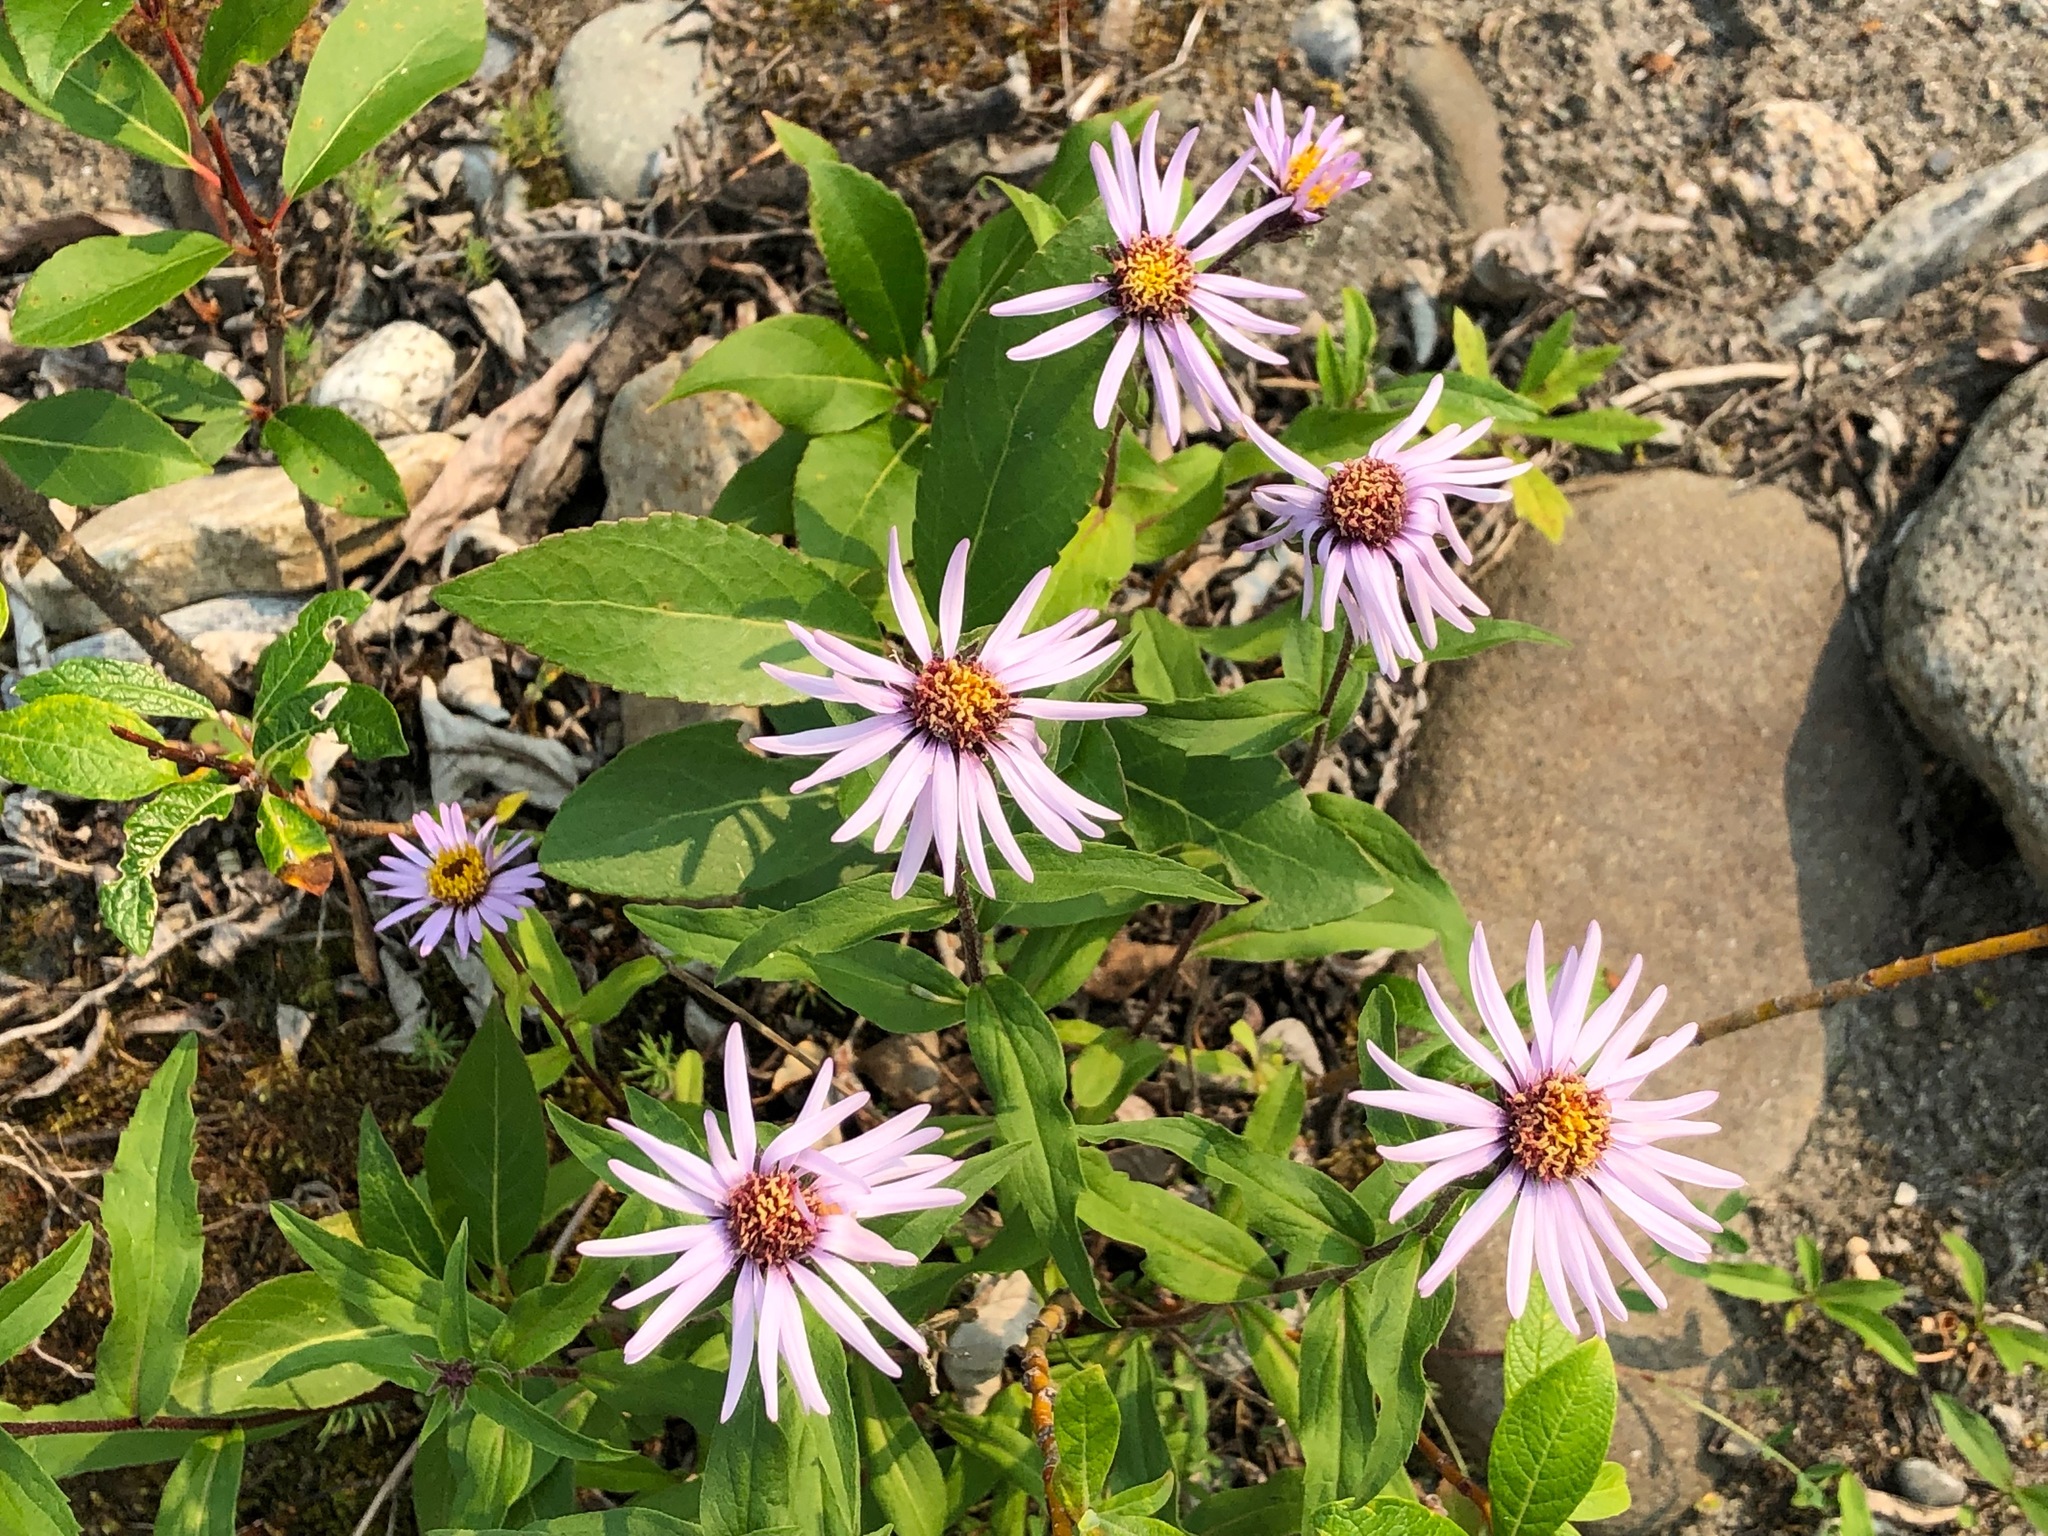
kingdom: Plantae
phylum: Tracheophyta
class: Magnoliopsida
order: Asterales
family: Asteraceae
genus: Eurybia
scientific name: Eurybia sibirica
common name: Arctic aster
